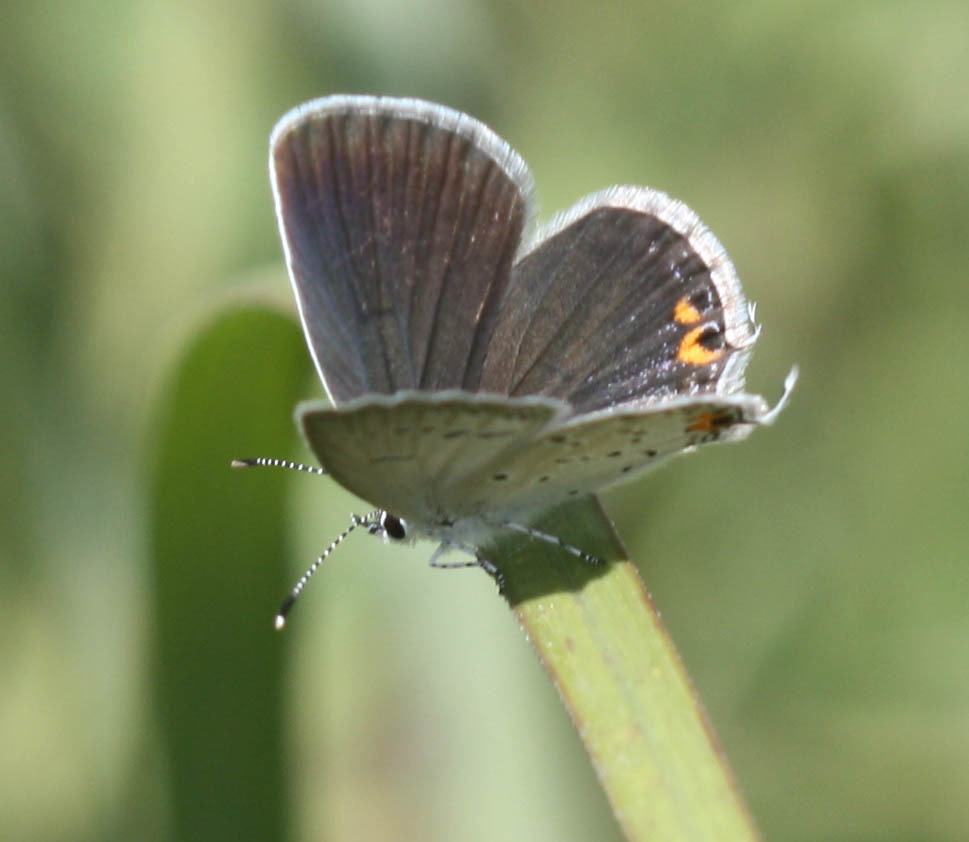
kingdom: Animalia
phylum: Arthropoda
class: Insecta
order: Lepidoptera
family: Lycaenidae
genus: Elkalyce
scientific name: Elkalyce comyntas
